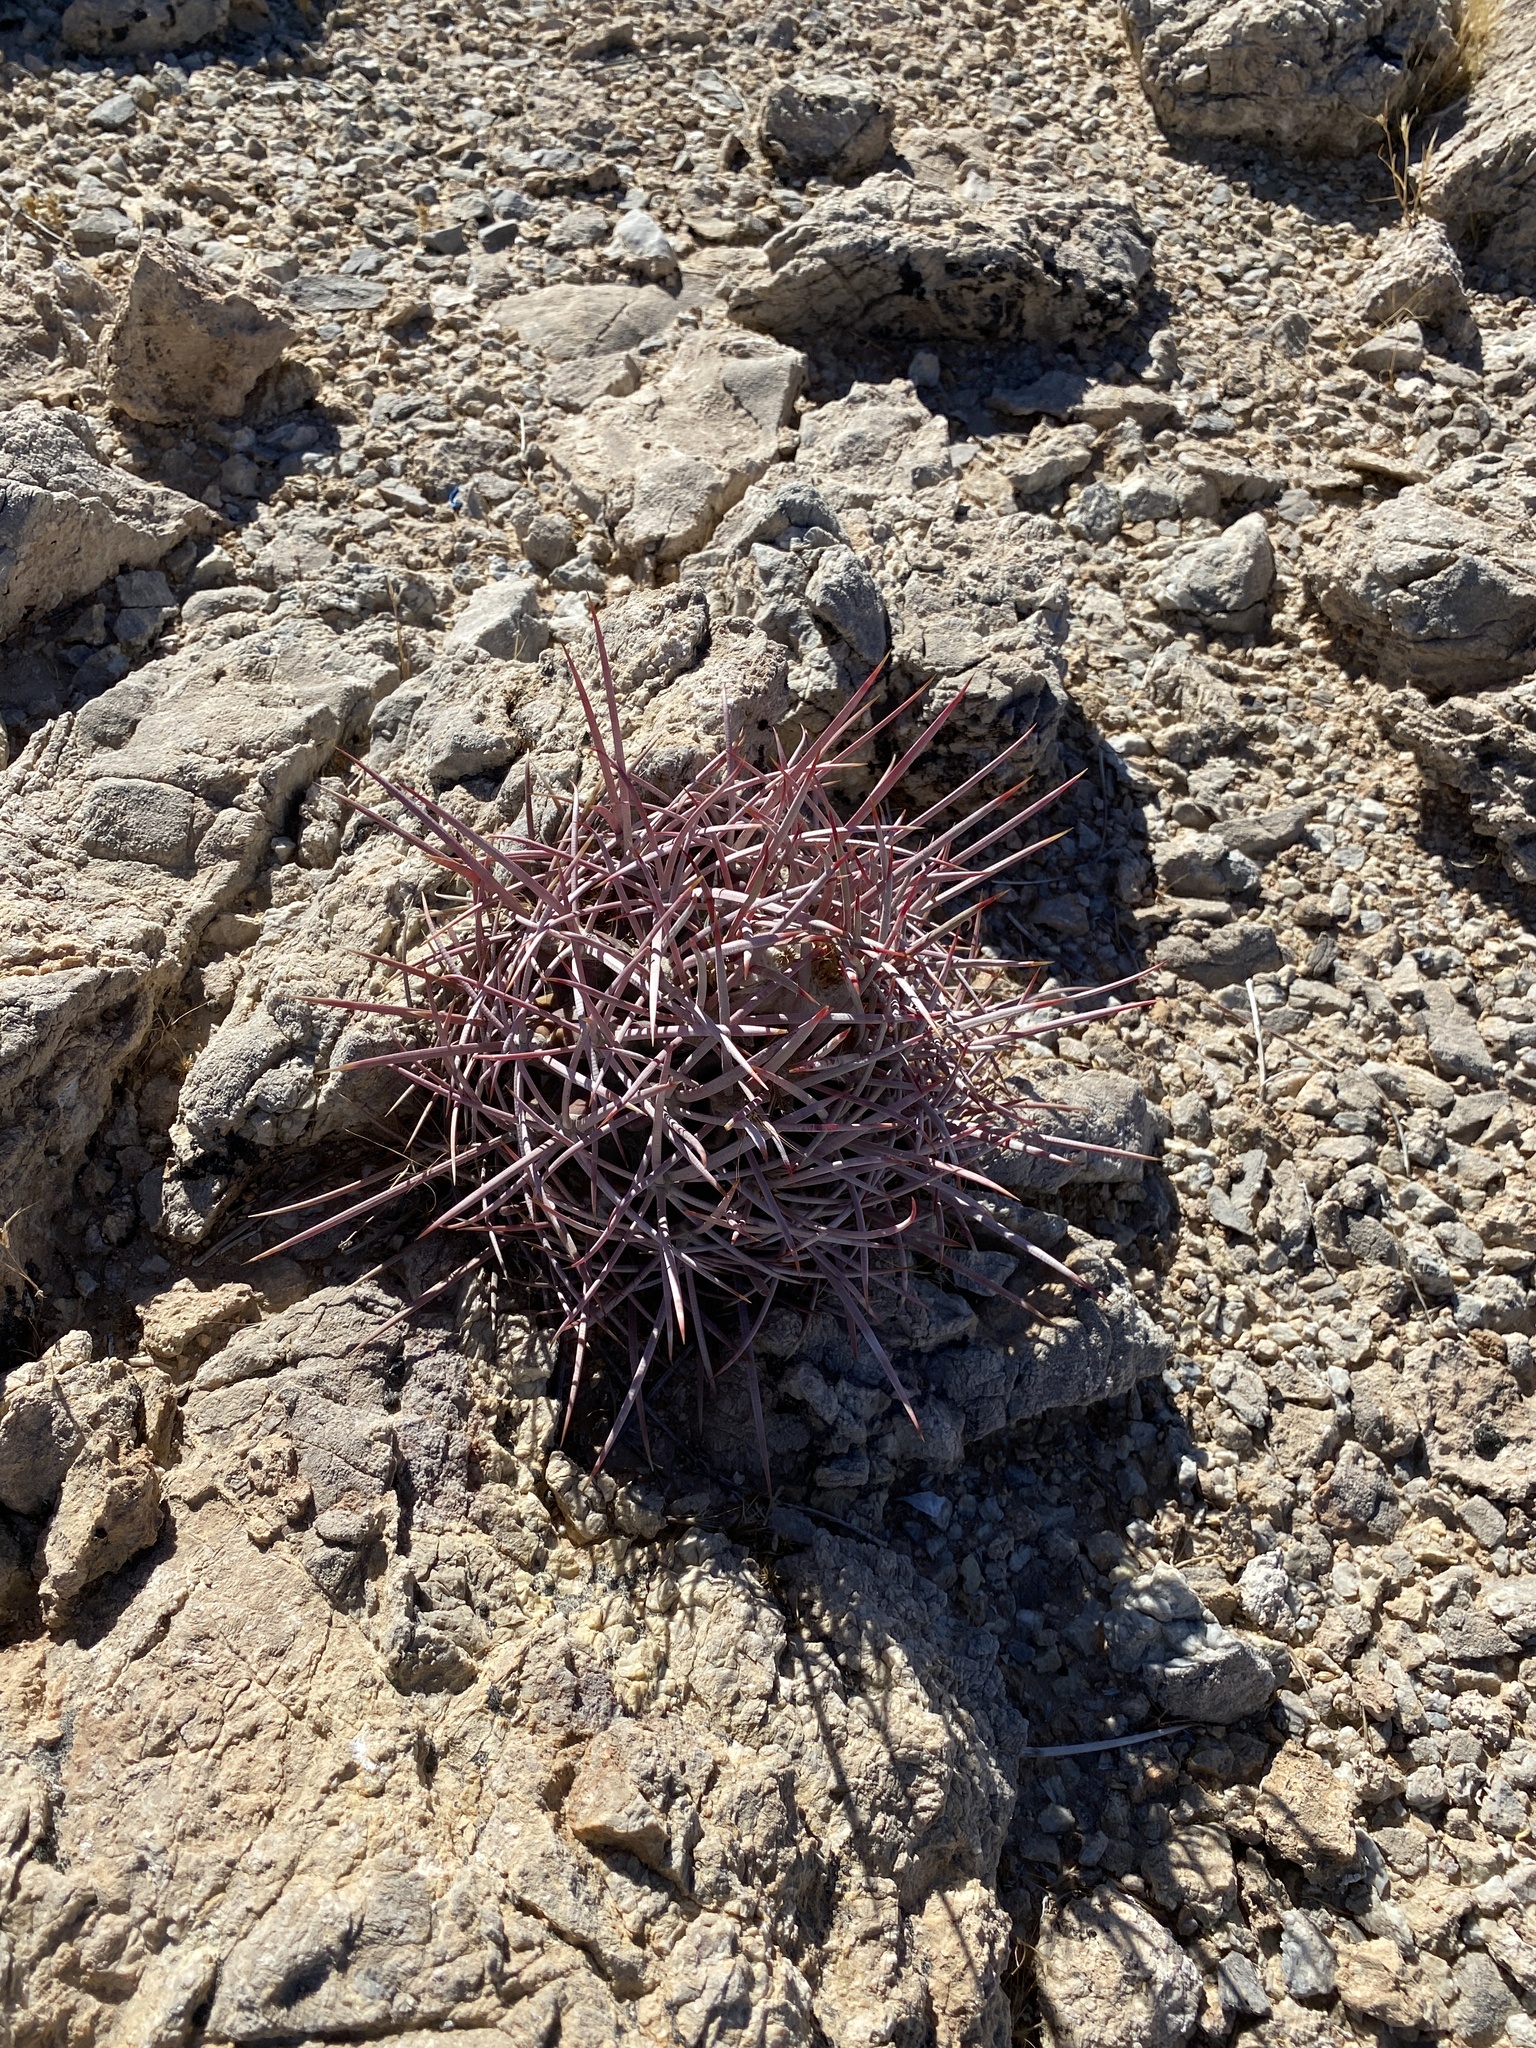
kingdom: Plantae
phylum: Tracheophyta
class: Magnoliopsida
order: Caryophyllales
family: Cactaceae
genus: Echinocactus
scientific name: Echinocactus polycephalus
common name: Cottontop cactus
